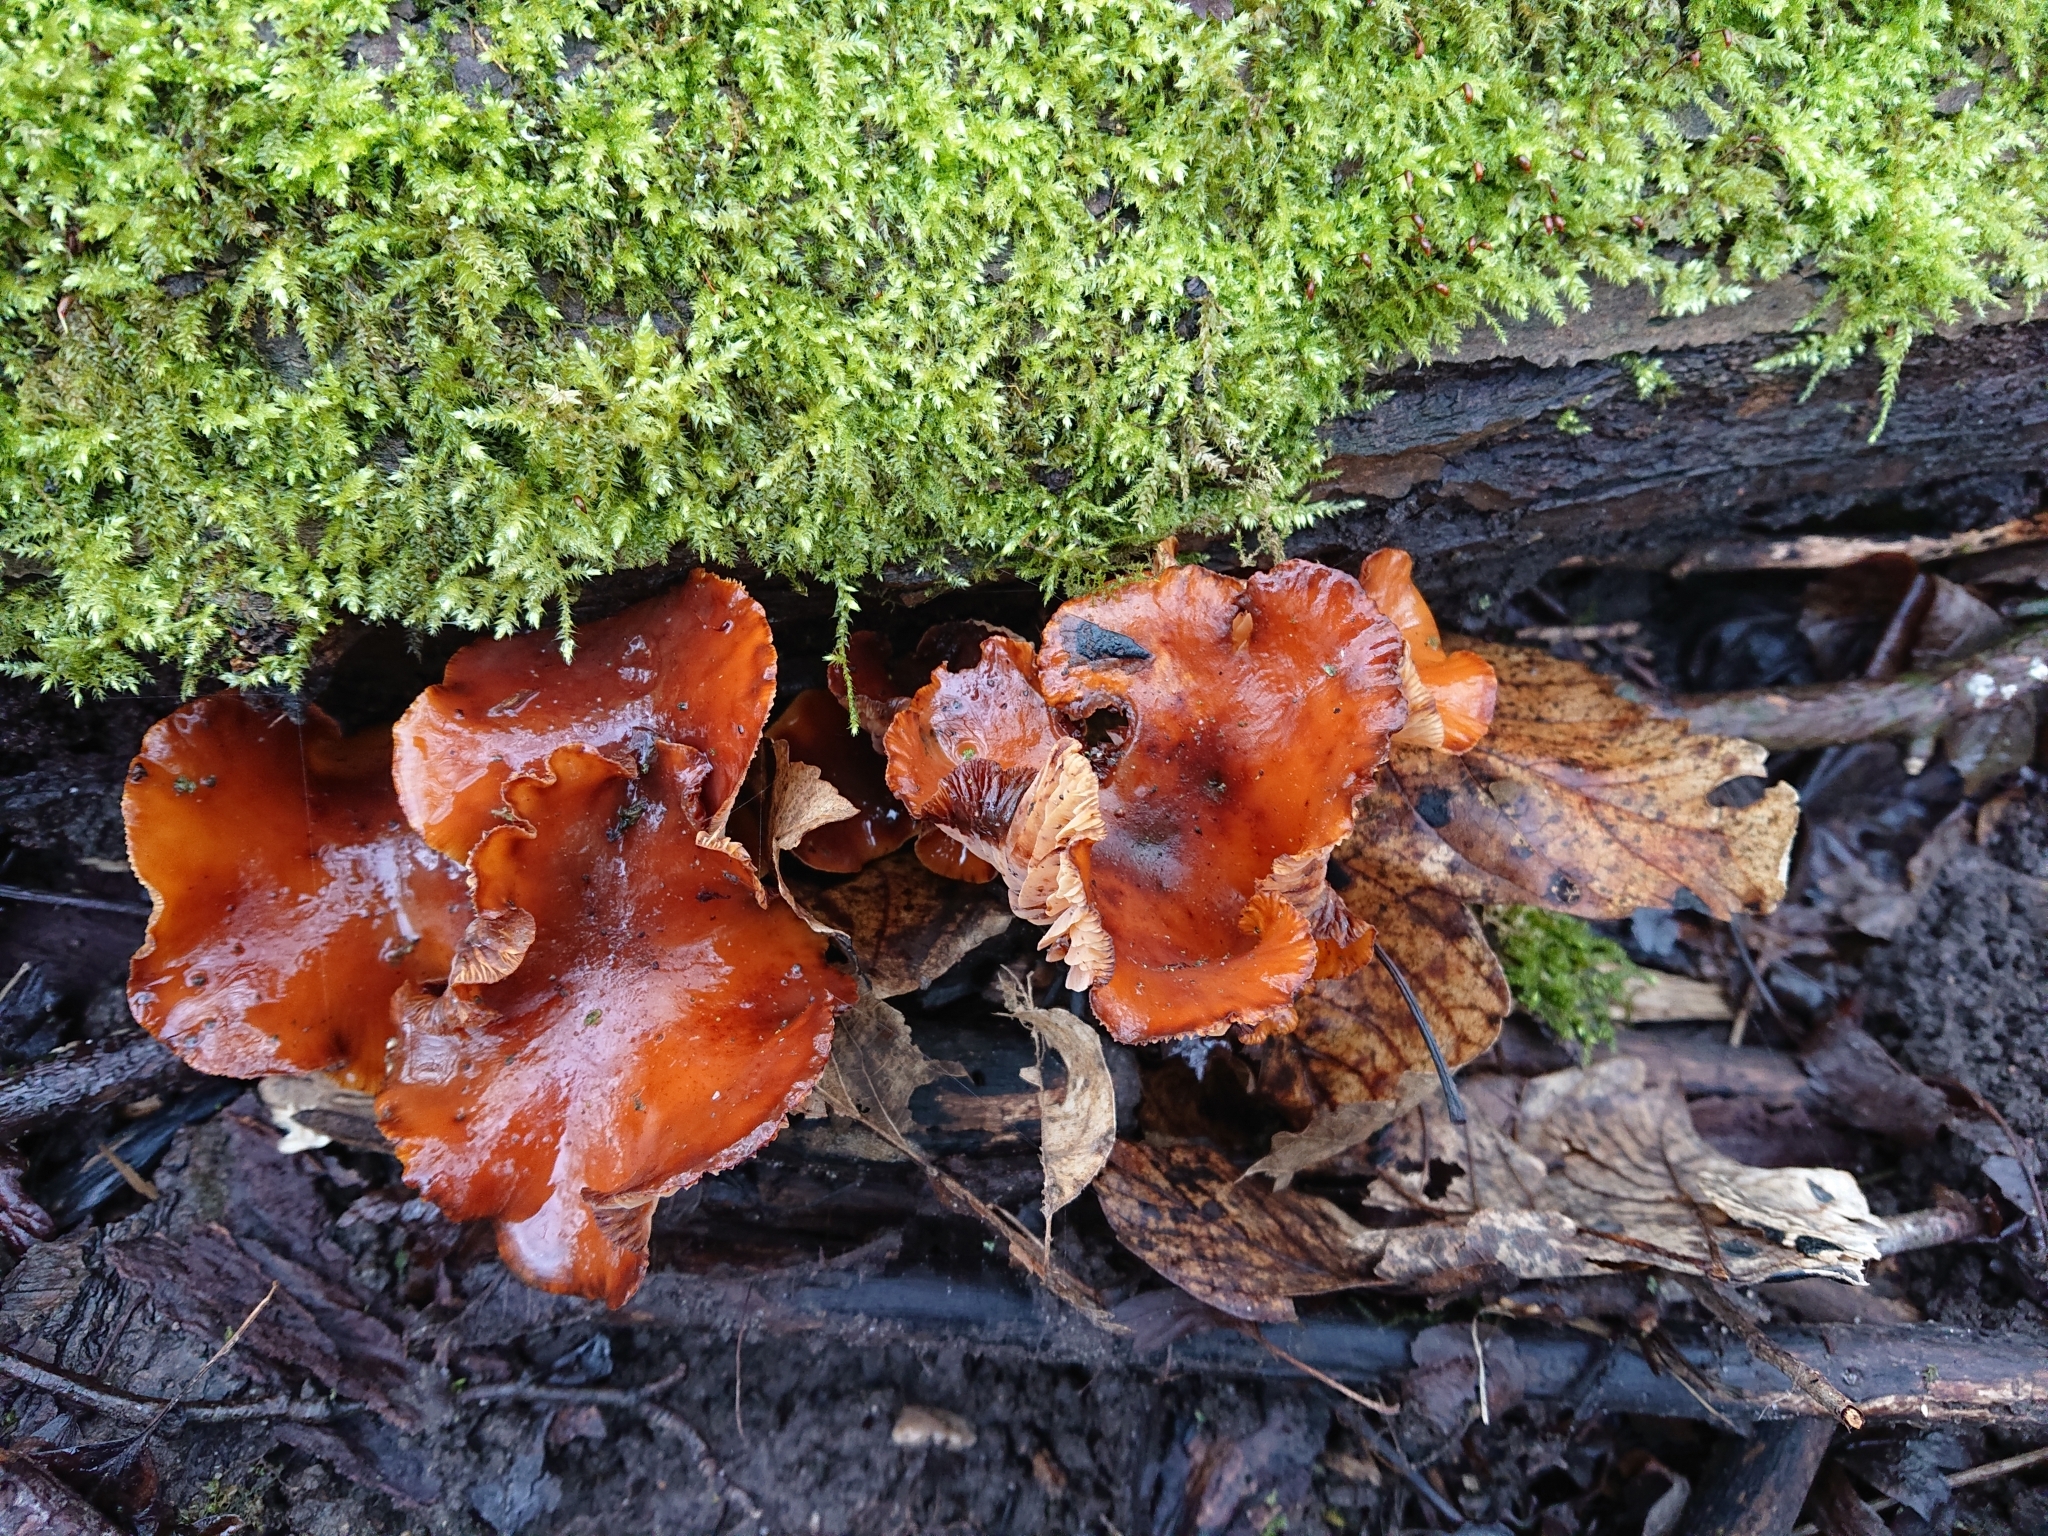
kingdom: Fungi
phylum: Basidiomycota
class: Agaricomycetes
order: Agaricales
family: Physalacriaceae
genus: Flammulina
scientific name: Flammulina
